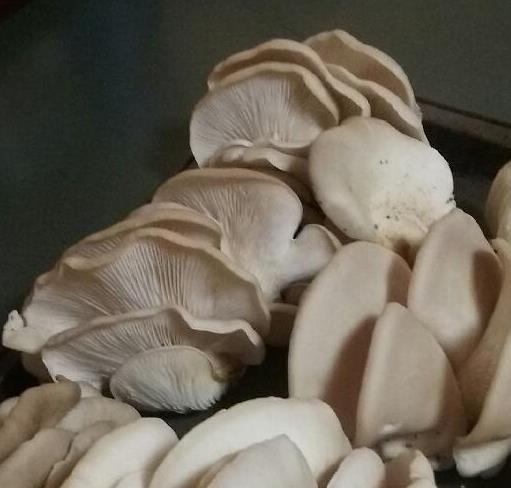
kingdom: Fungi
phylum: Basidiomycota
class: Agaricomycetes
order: Agaricales
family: Pleurotaceae
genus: Pleurotus
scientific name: Pleurotus ostreatus
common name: Oyster mushroom
